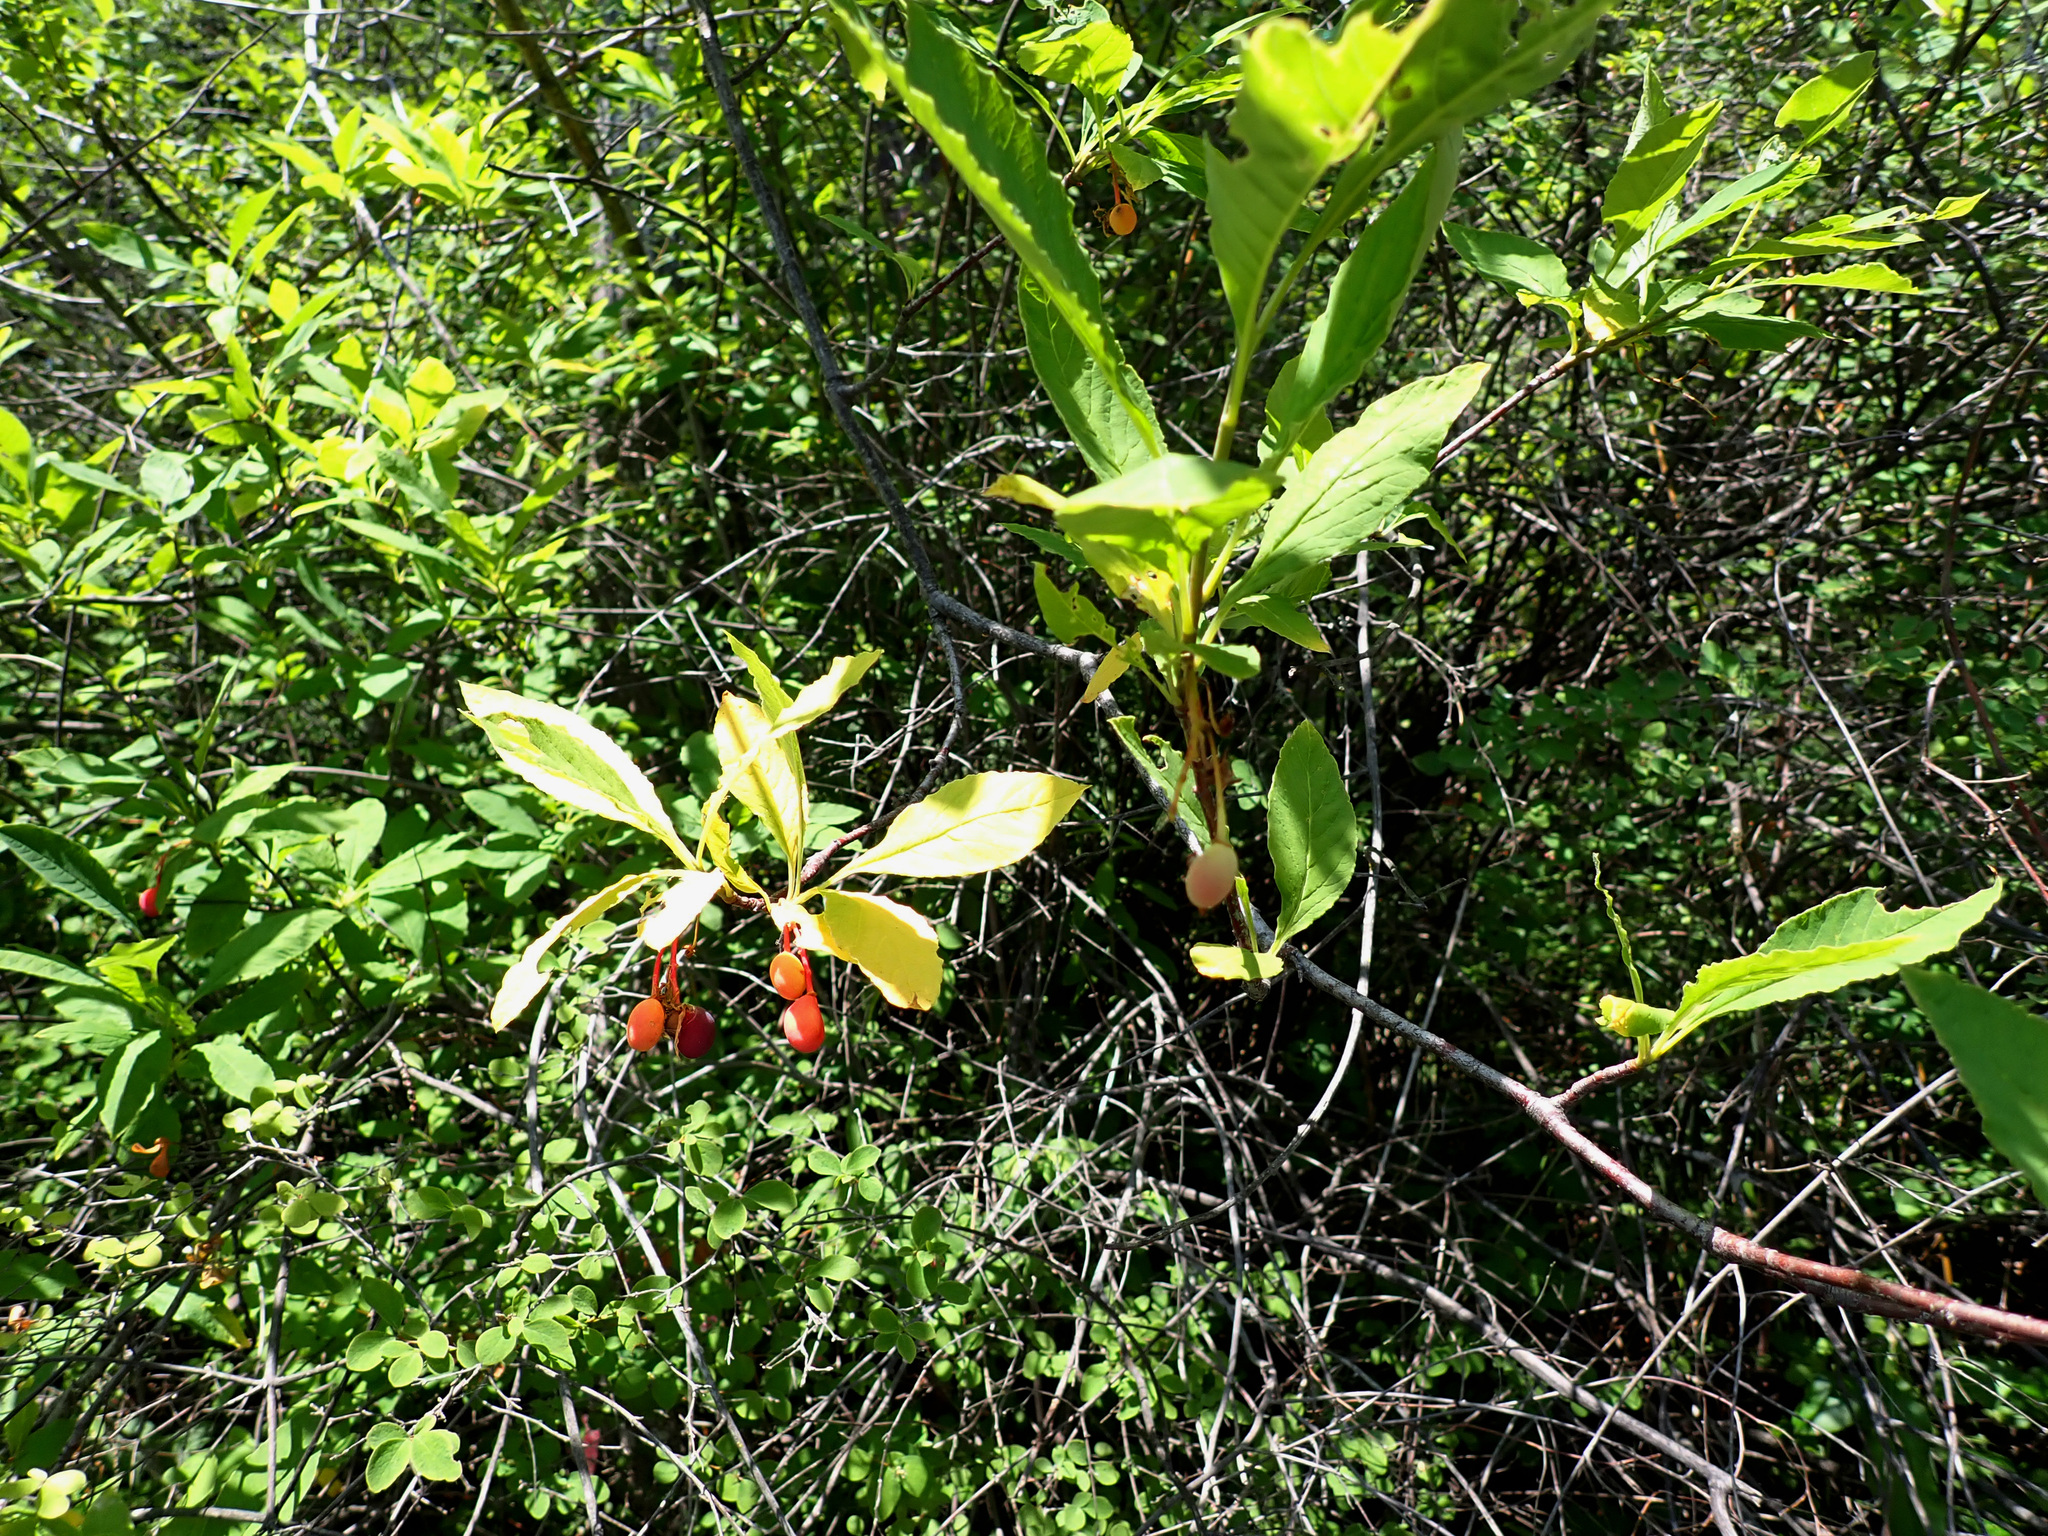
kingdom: Plantae
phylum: Tracheophyta
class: Magnoliopsida
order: Rosales
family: Rosaceae
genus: Oemleria
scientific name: Oemleria cerasiformis
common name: Osoberry
